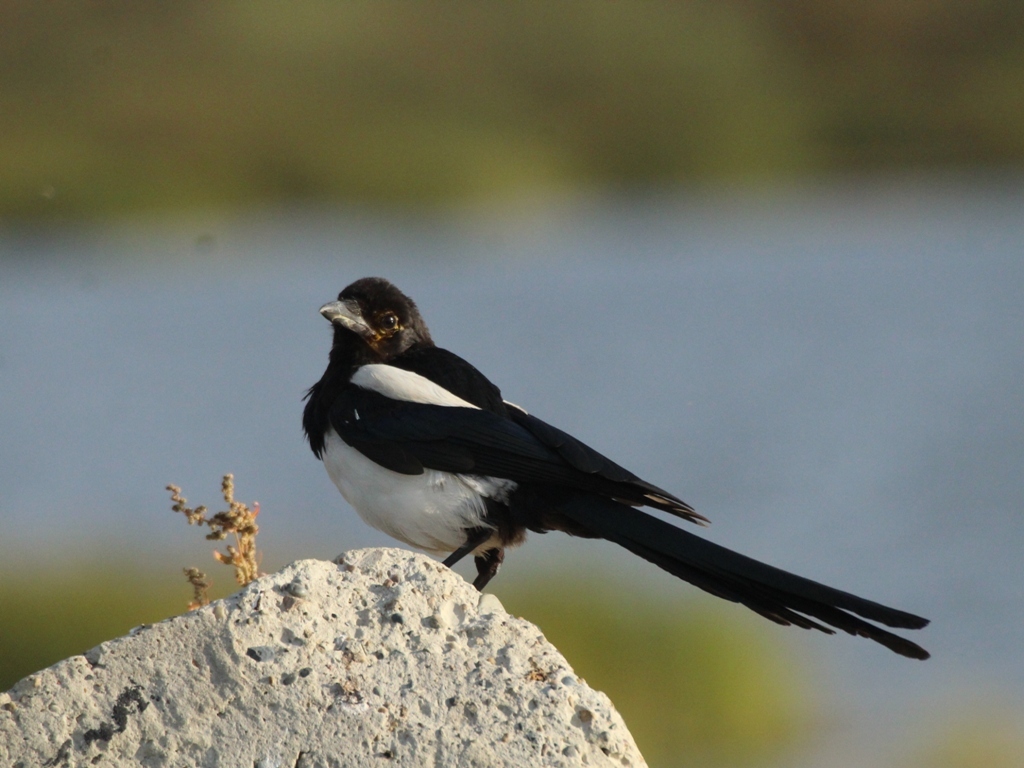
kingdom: Animalia
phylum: Chordata
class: Aves
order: Passeriformes
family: Corvidae
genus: Pica
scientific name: Pica pica
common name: Eurasian magpie
